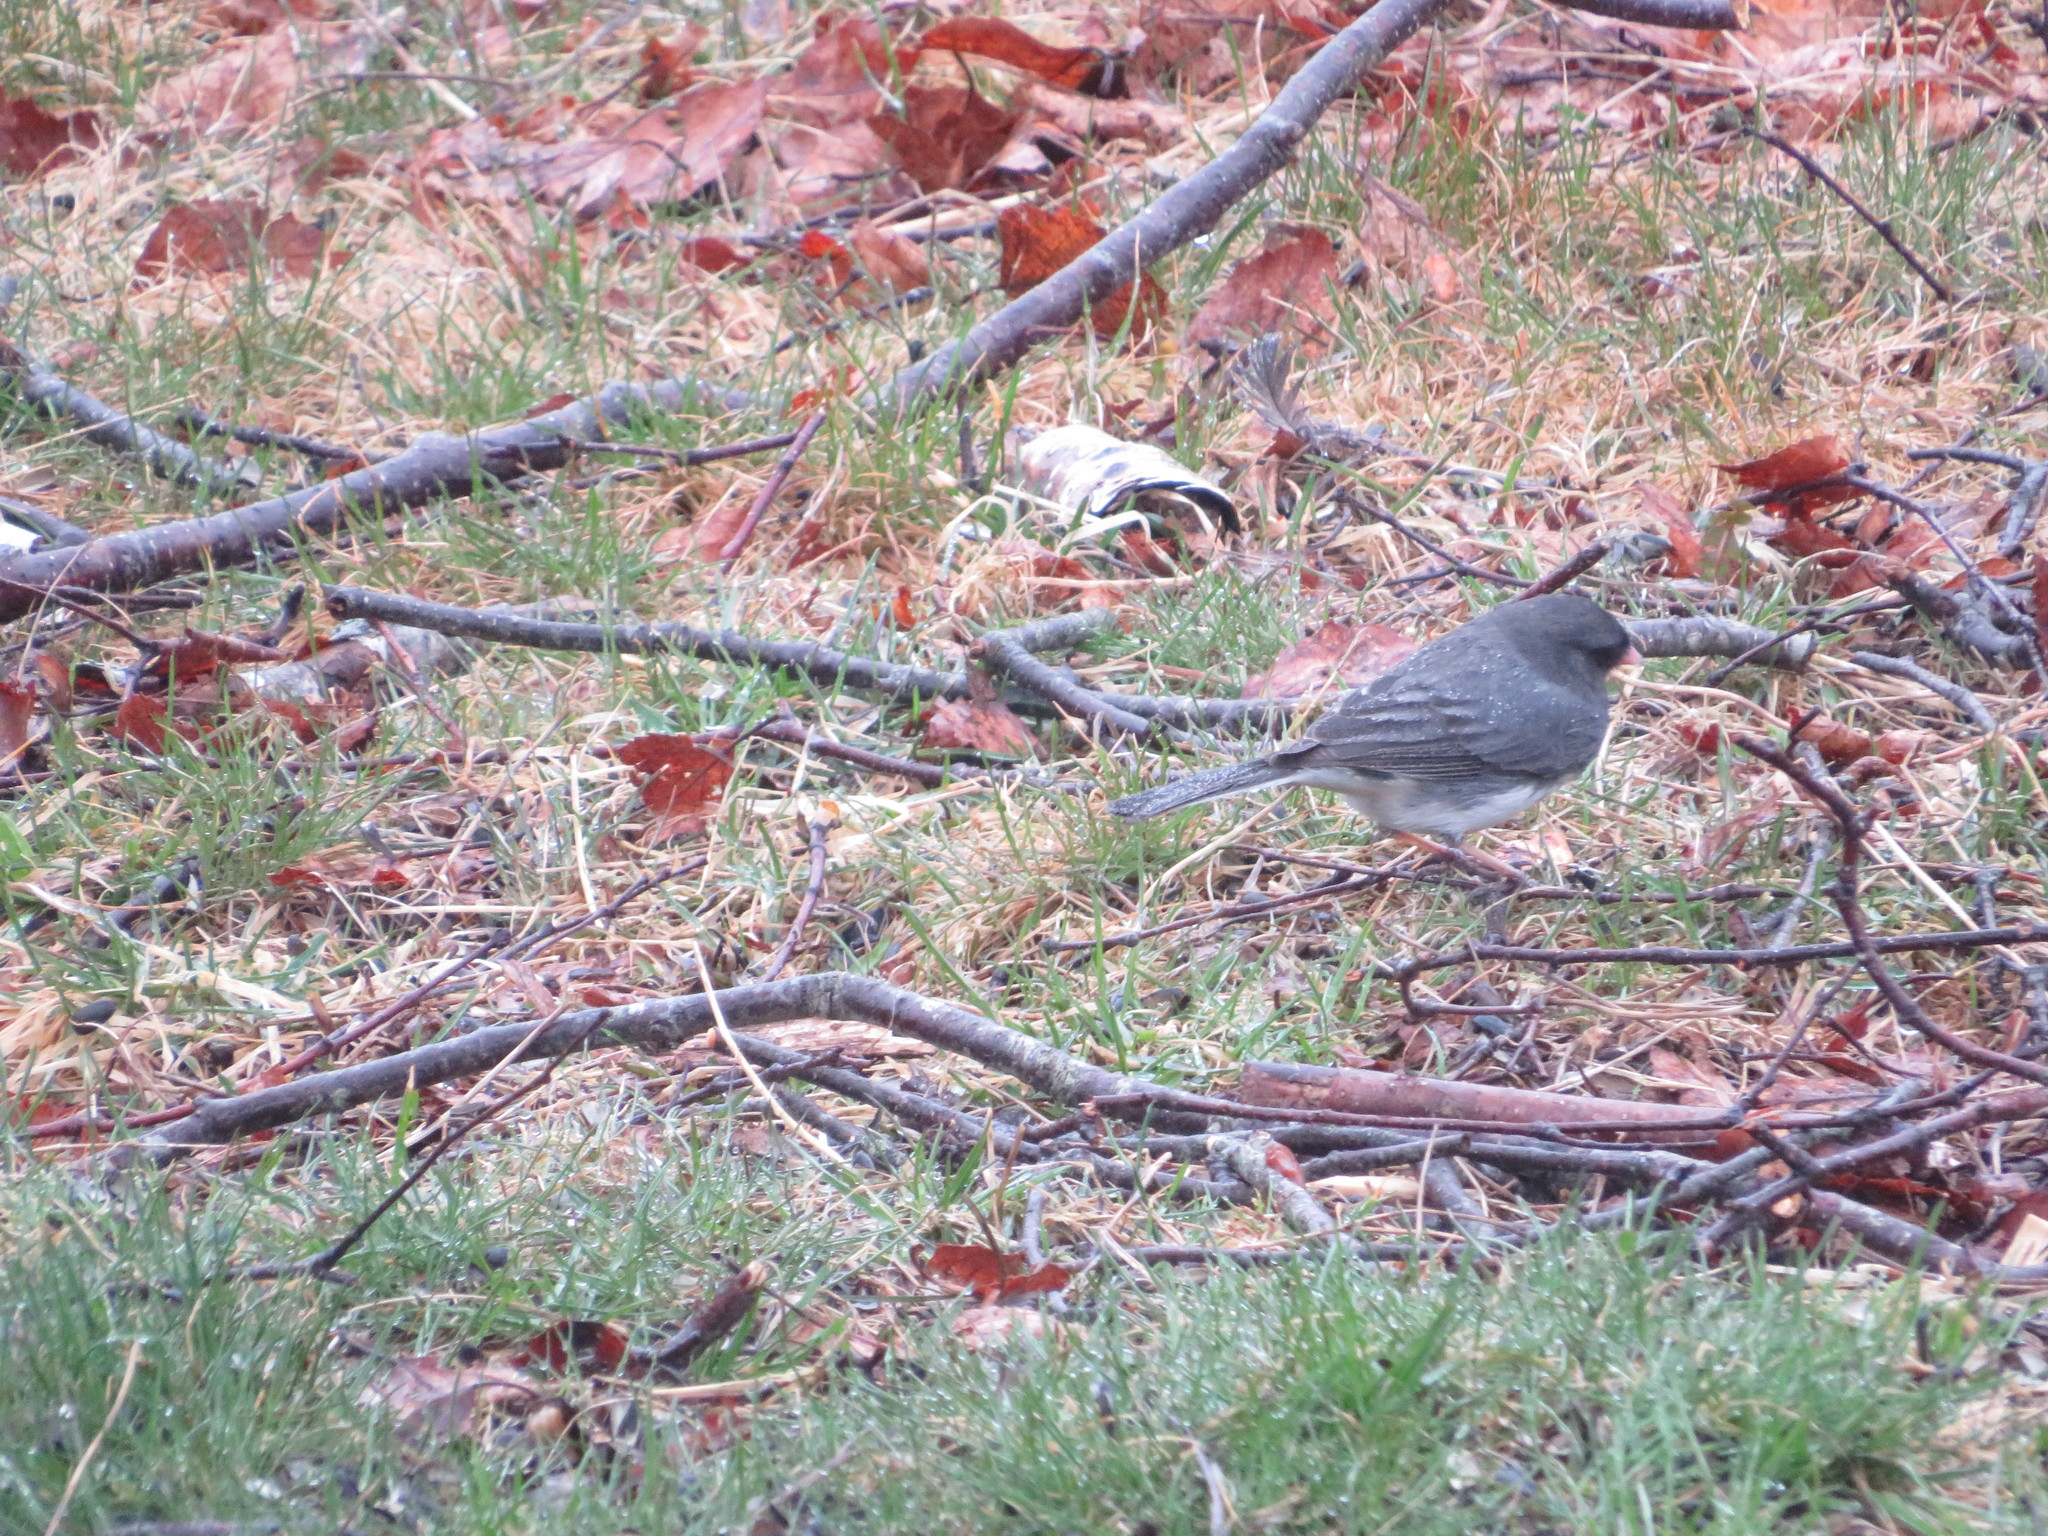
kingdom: Animalia
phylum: Chordata
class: Aves
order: Passeriformes
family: Passerellidae
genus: Junco
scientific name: Junco hyemalis
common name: Dark-eyed junco
